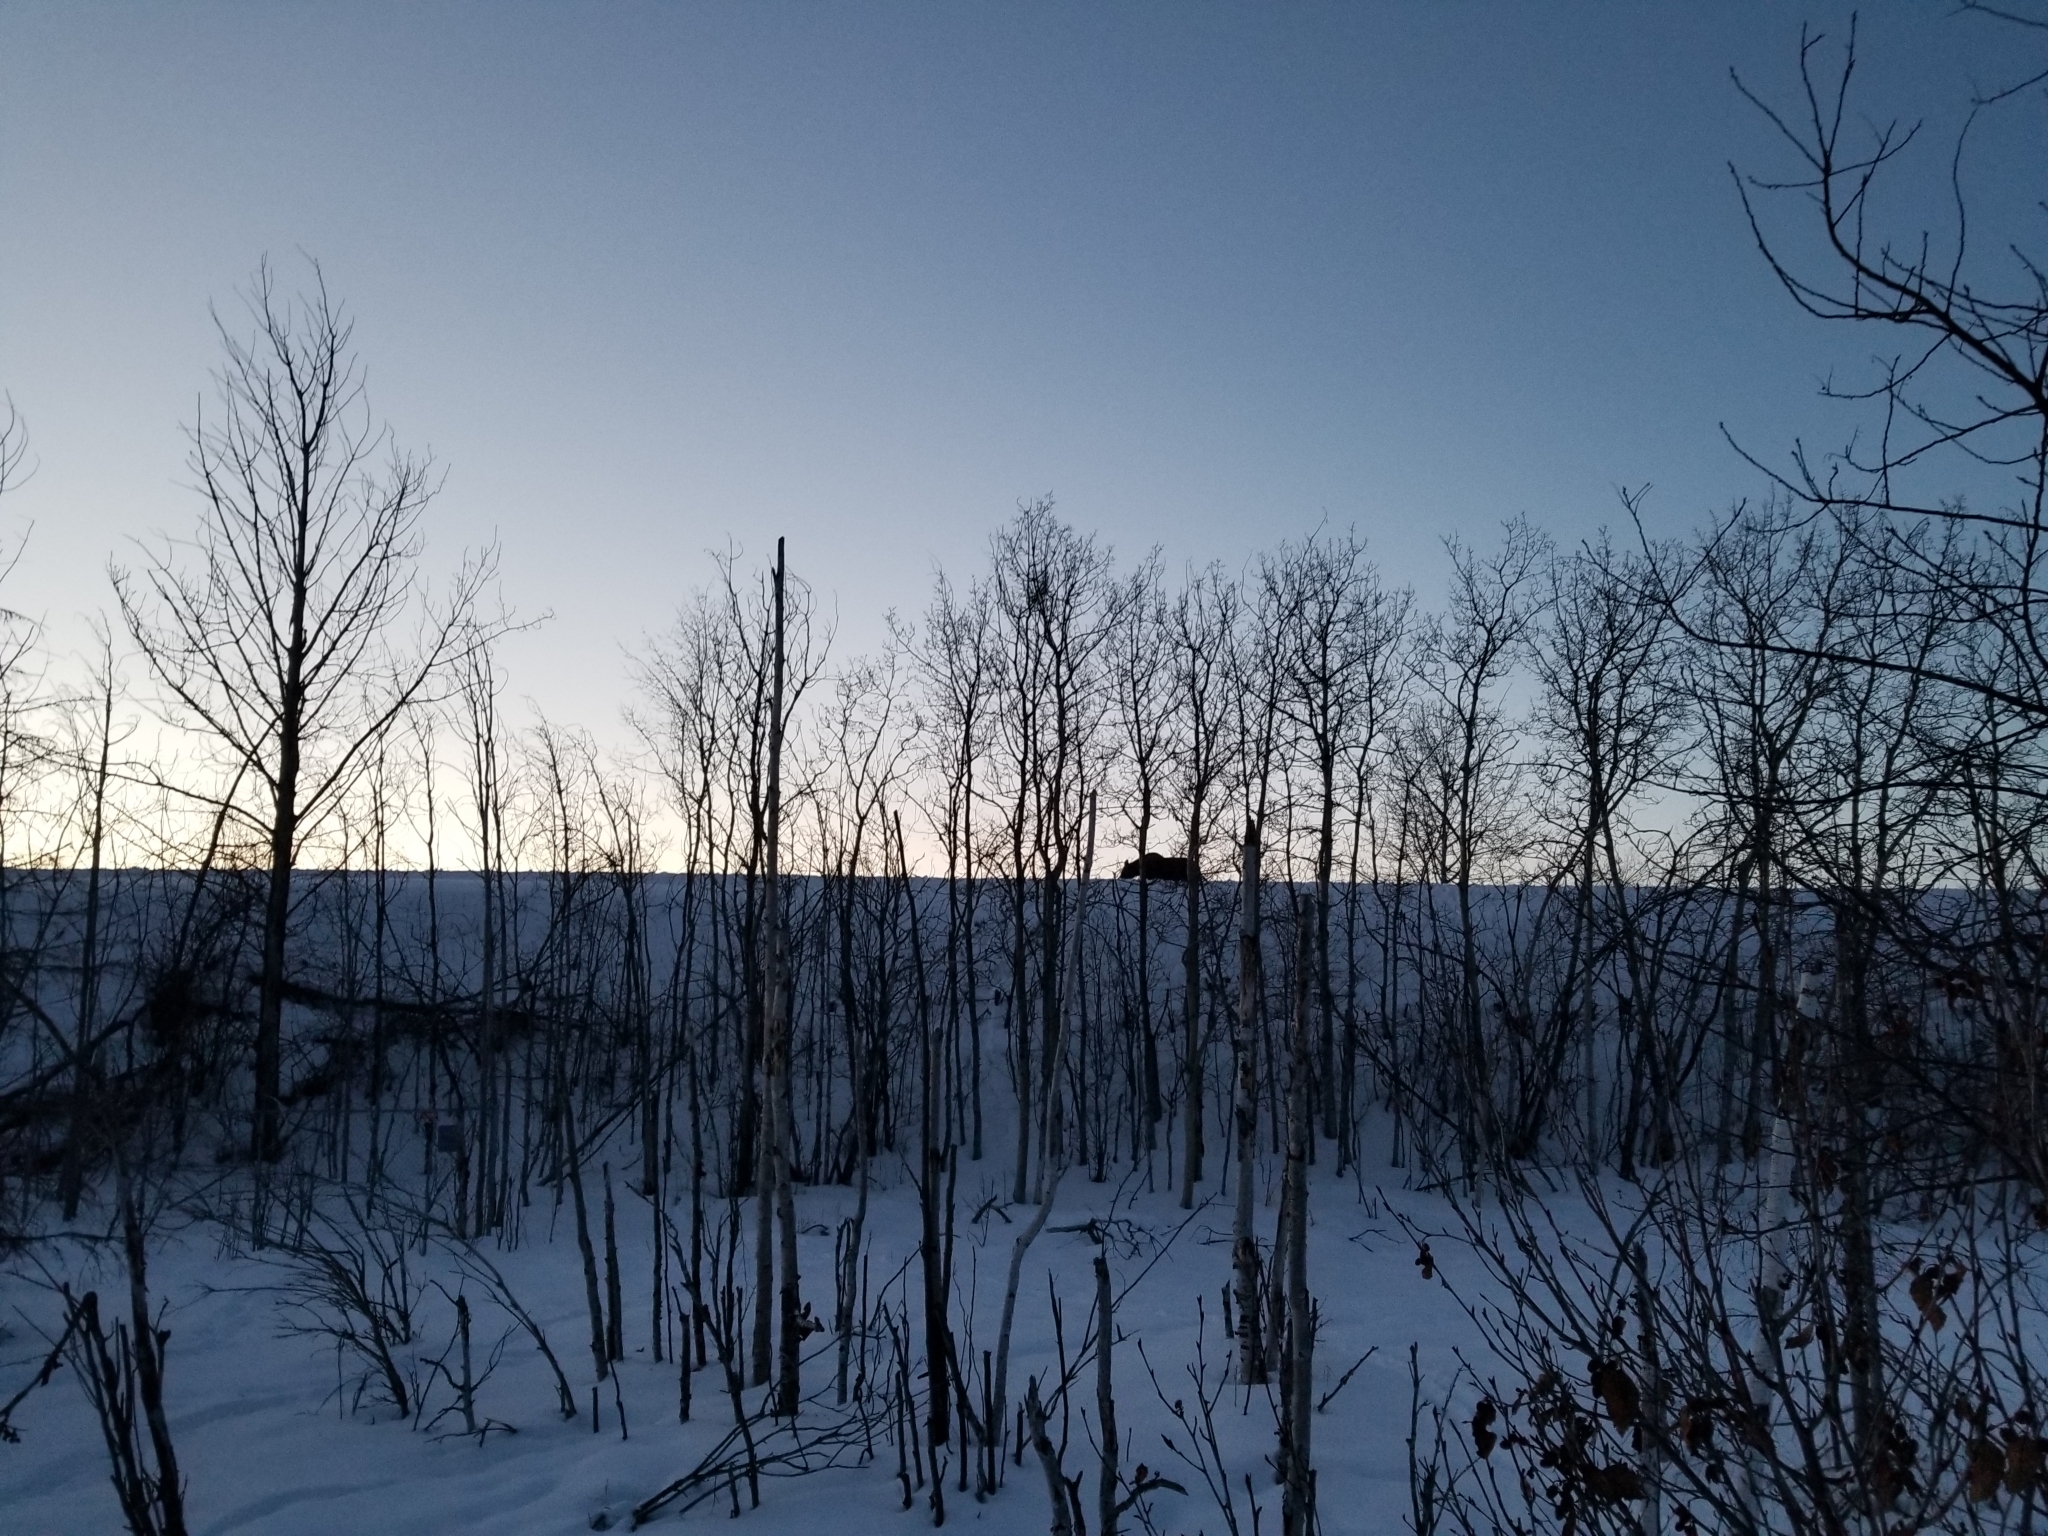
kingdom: Animalia
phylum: Chordata
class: Mammalia
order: Artiodactyla
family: Cervidae
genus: Alces
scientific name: Alces alces
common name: Moose
